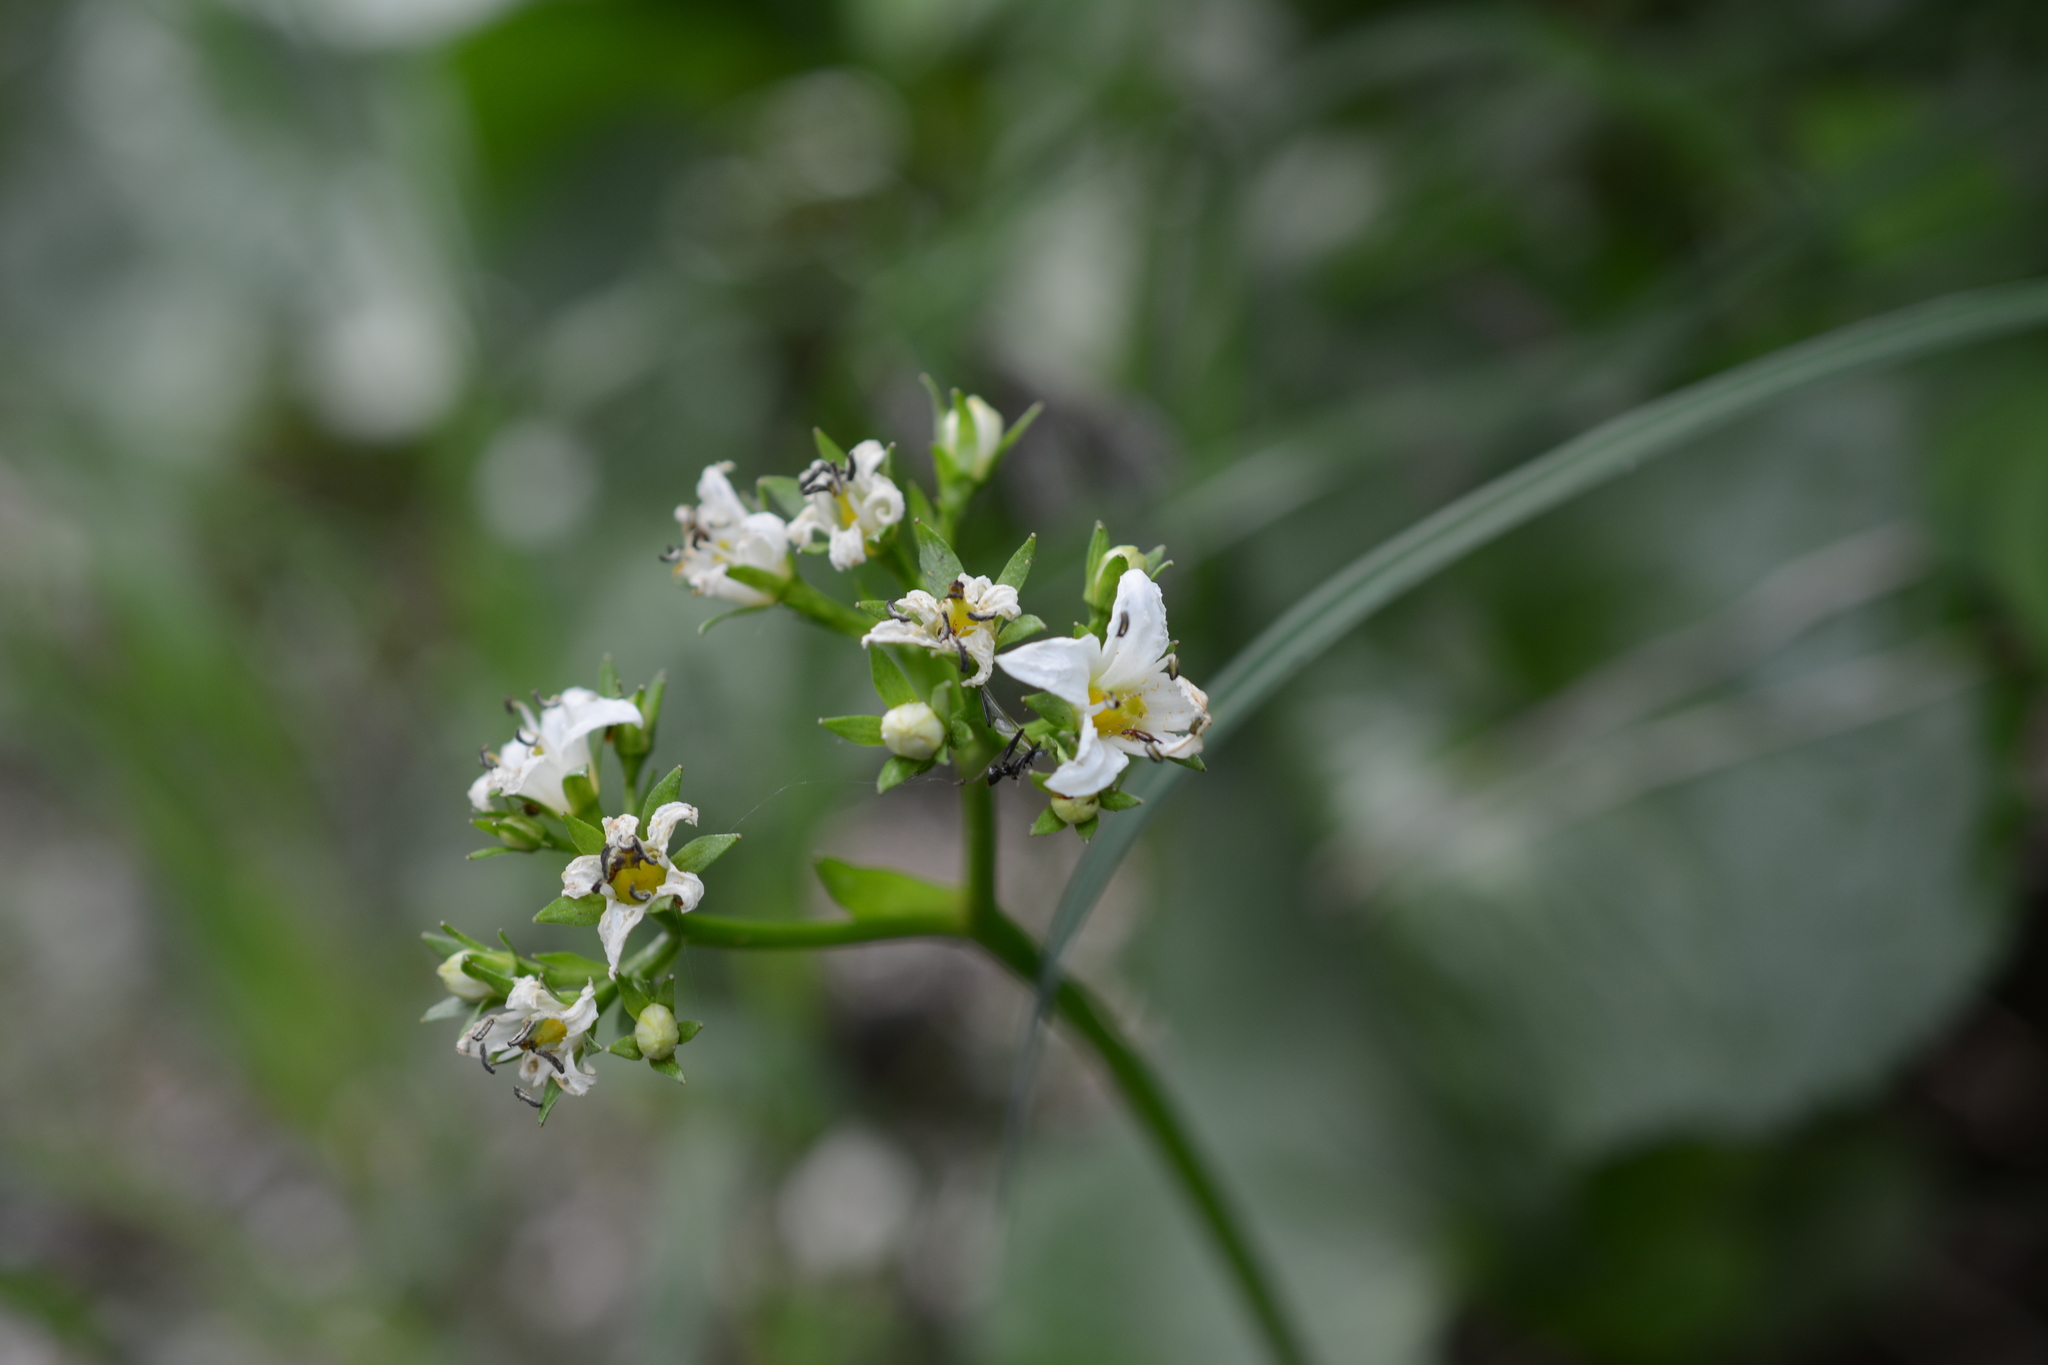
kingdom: Plantae
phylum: Tracheophyta
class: Magnoliopsida
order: Asterales
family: Menyanthaceae
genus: Nephrophyllidium
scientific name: Nephrophyllidium crista-galli
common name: Deer-cabbage
